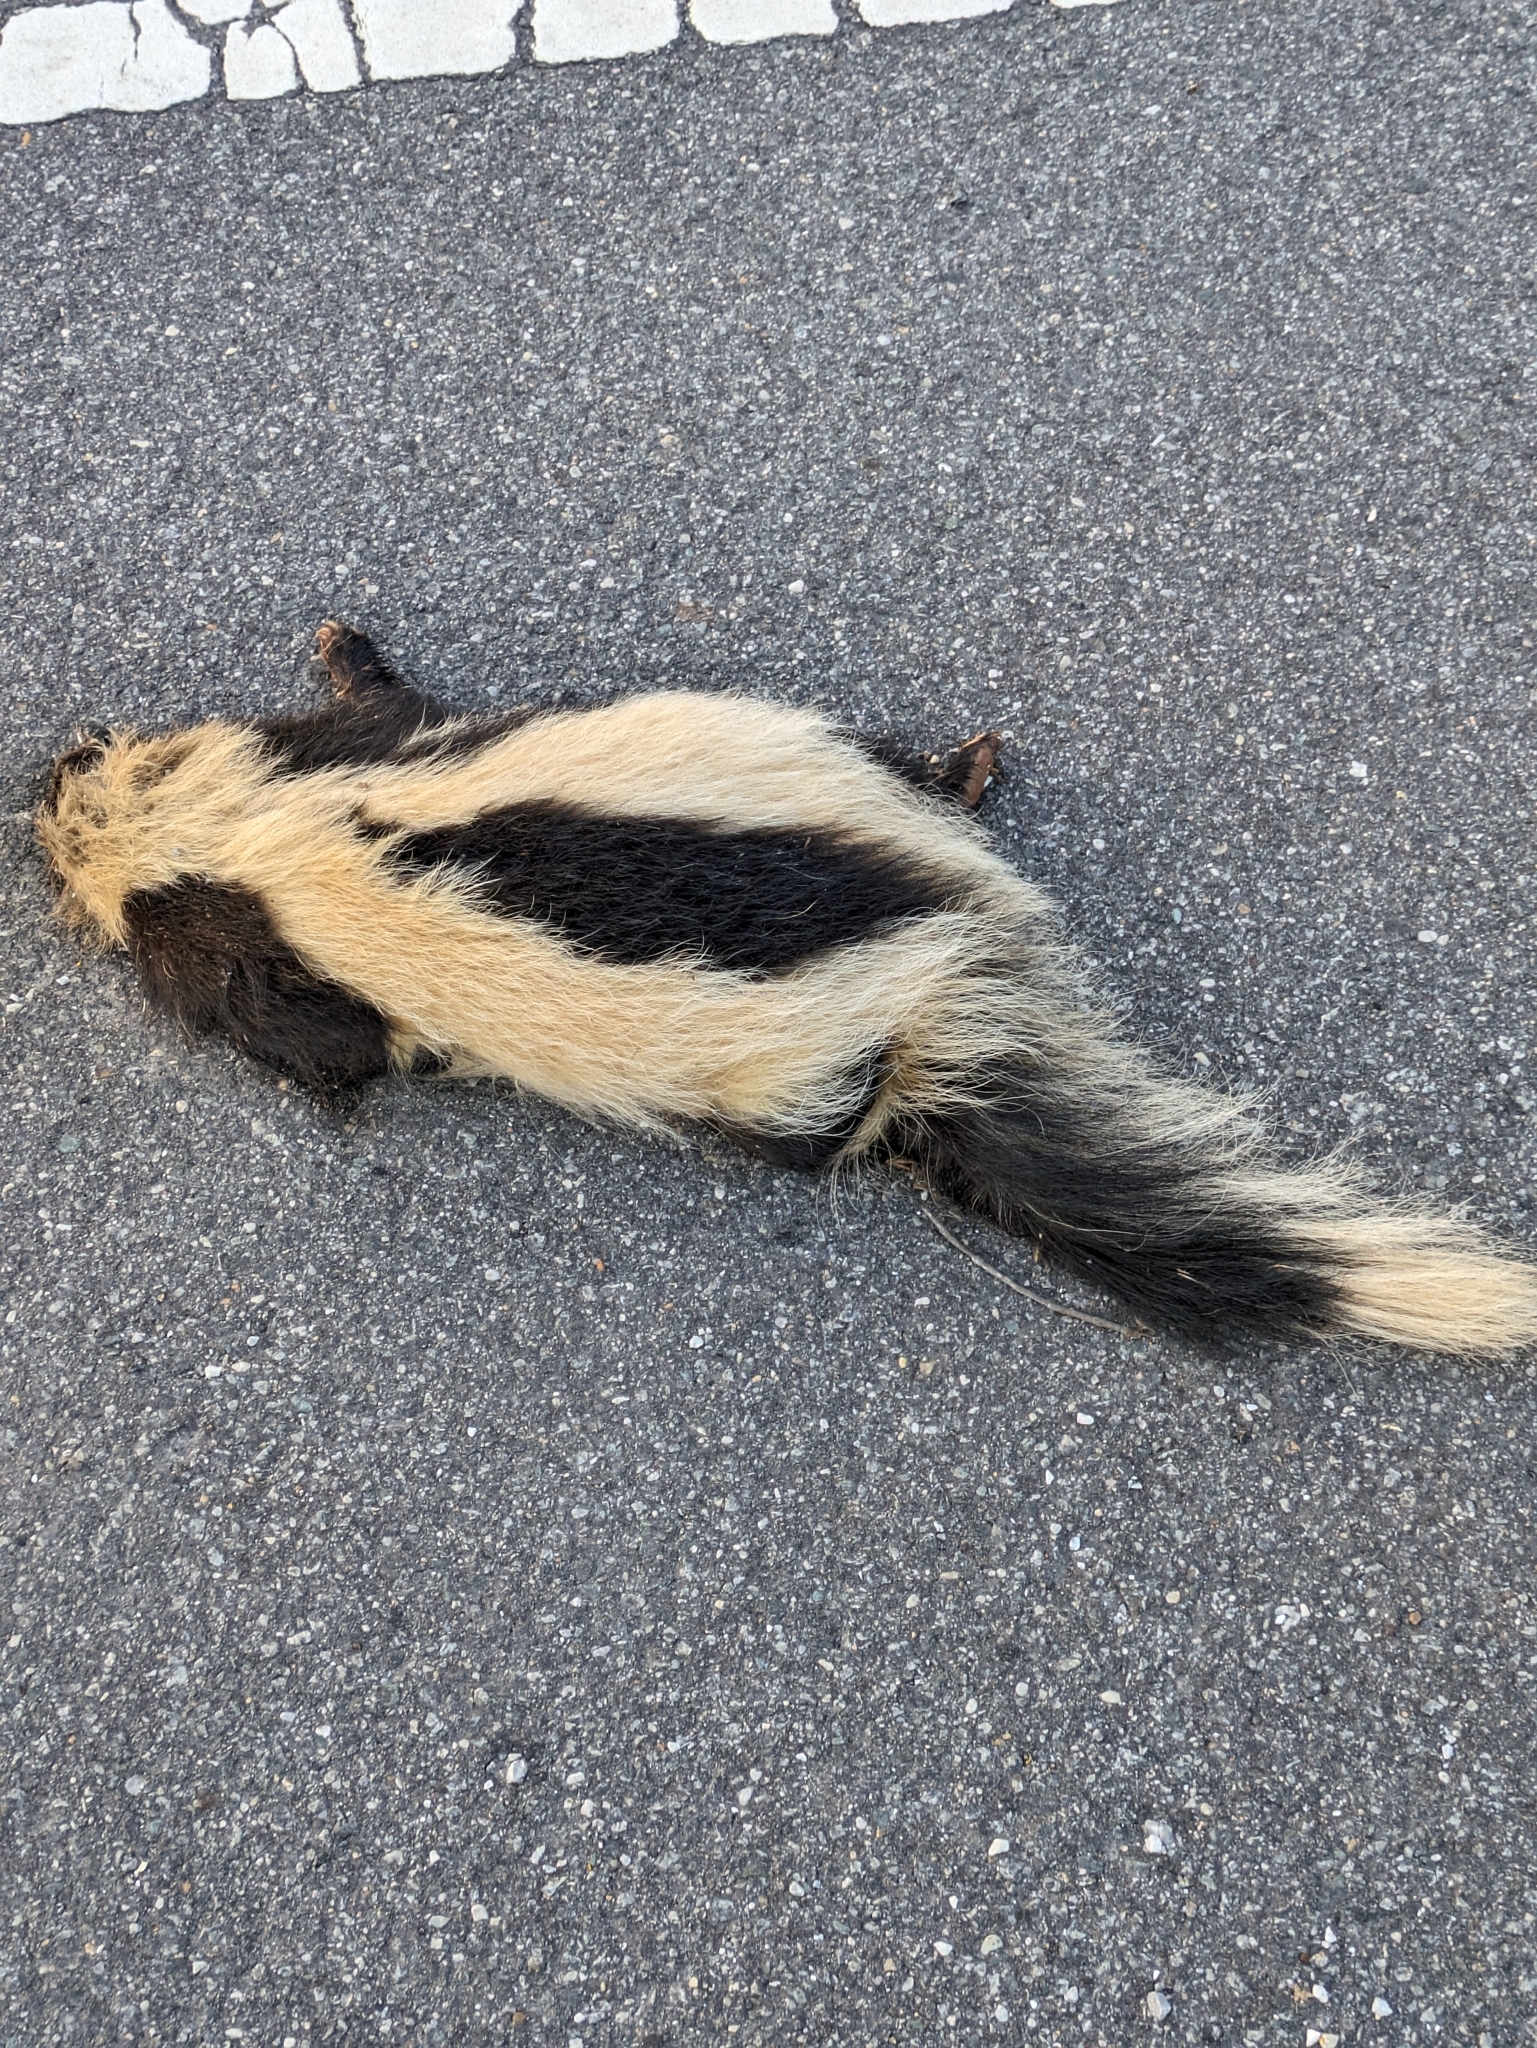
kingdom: Animalia
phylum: Chordata
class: Mammalia
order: Carnivora
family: Mephitidae
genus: Mephitis
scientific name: Mephitis mephitis
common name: Striped skunk
